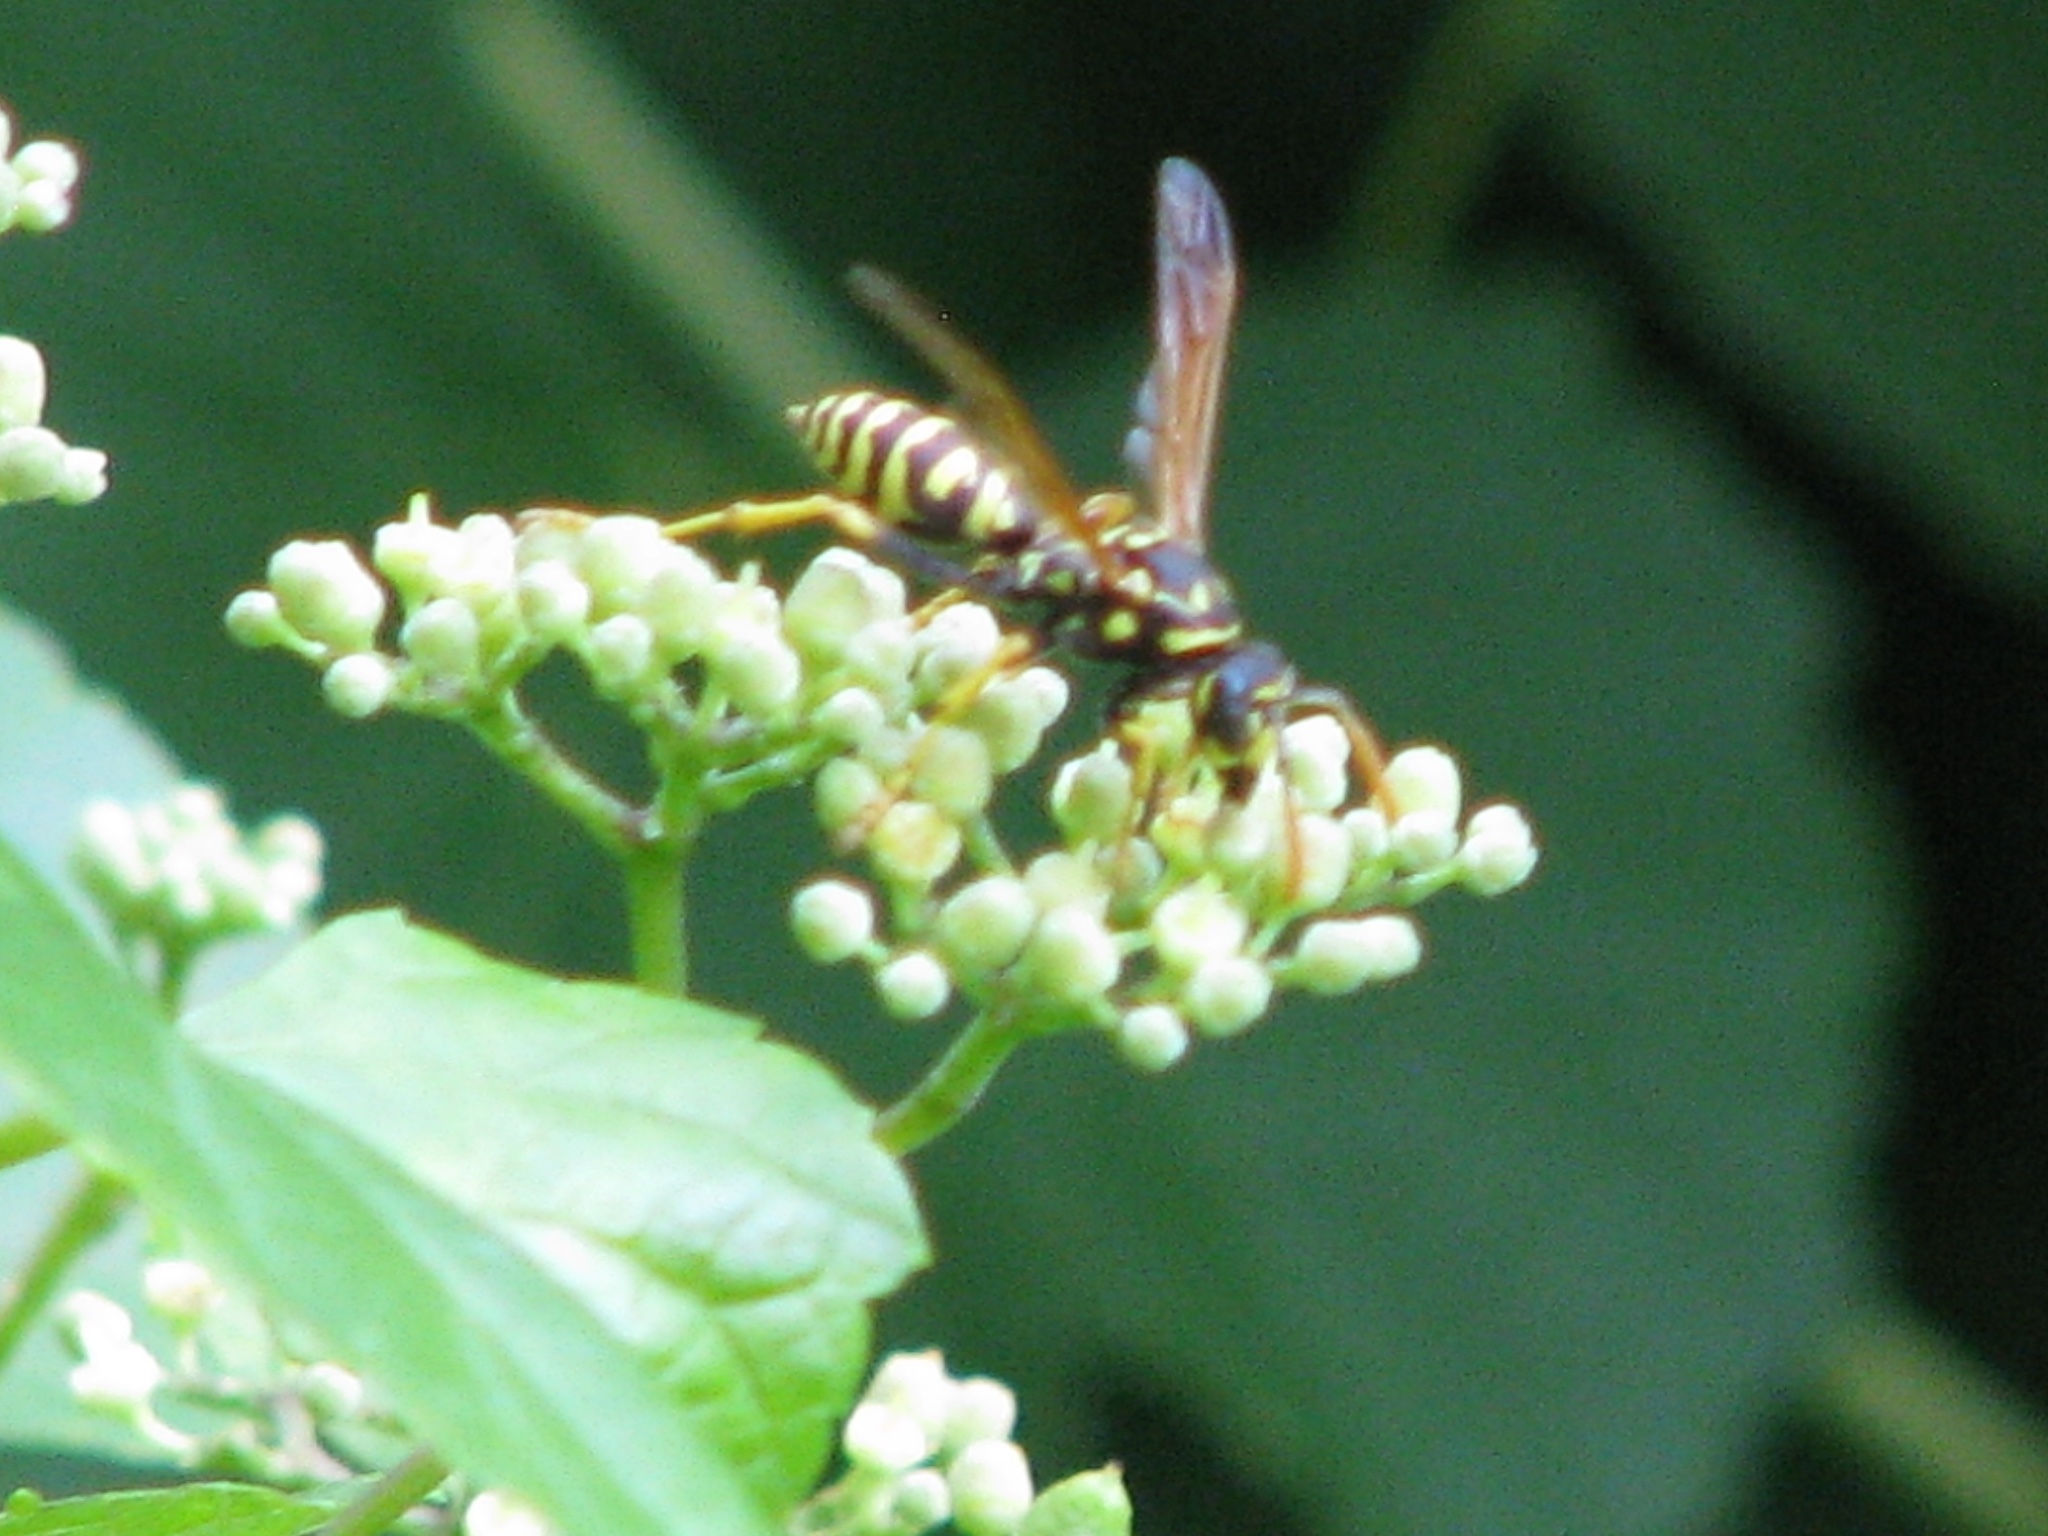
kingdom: Animalia
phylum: Arthropoda
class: Insecta
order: Hymenoptera
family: Eumenidae
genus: Polistes
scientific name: Polistes dominula
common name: Paper wasp
